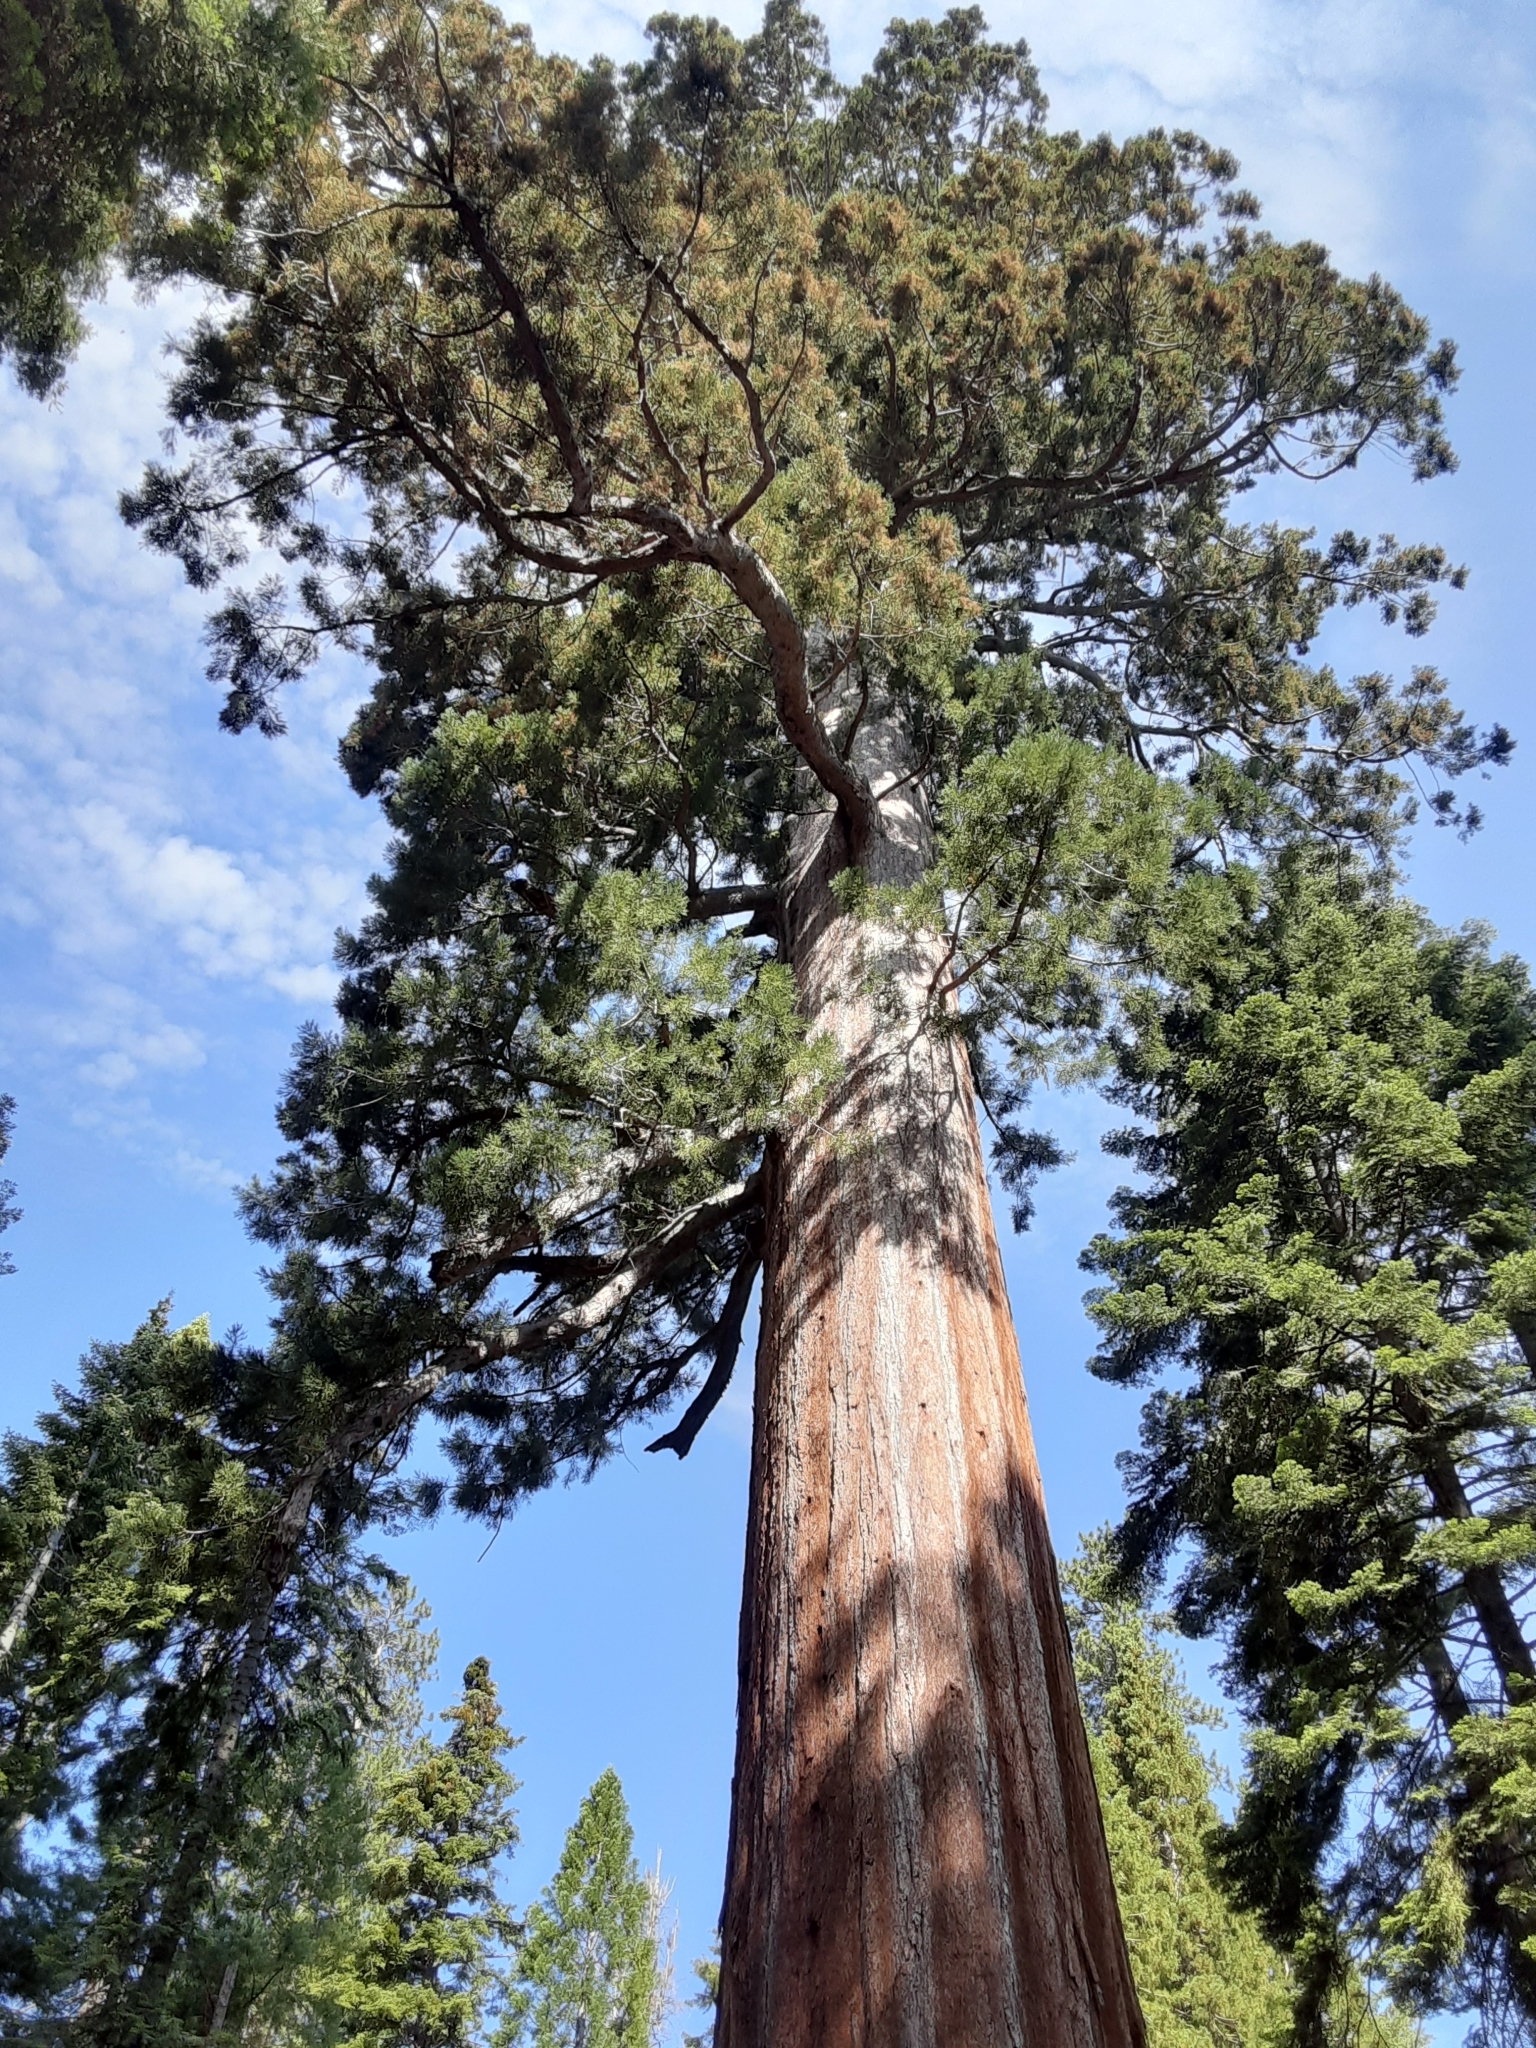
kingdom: Plantae
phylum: Tracheophyta
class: Pinopsida
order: Pinales
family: Cupressaceae
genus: Sequoiadendron
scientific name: Sequoiadendron giganteum
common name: Wellingtonia
